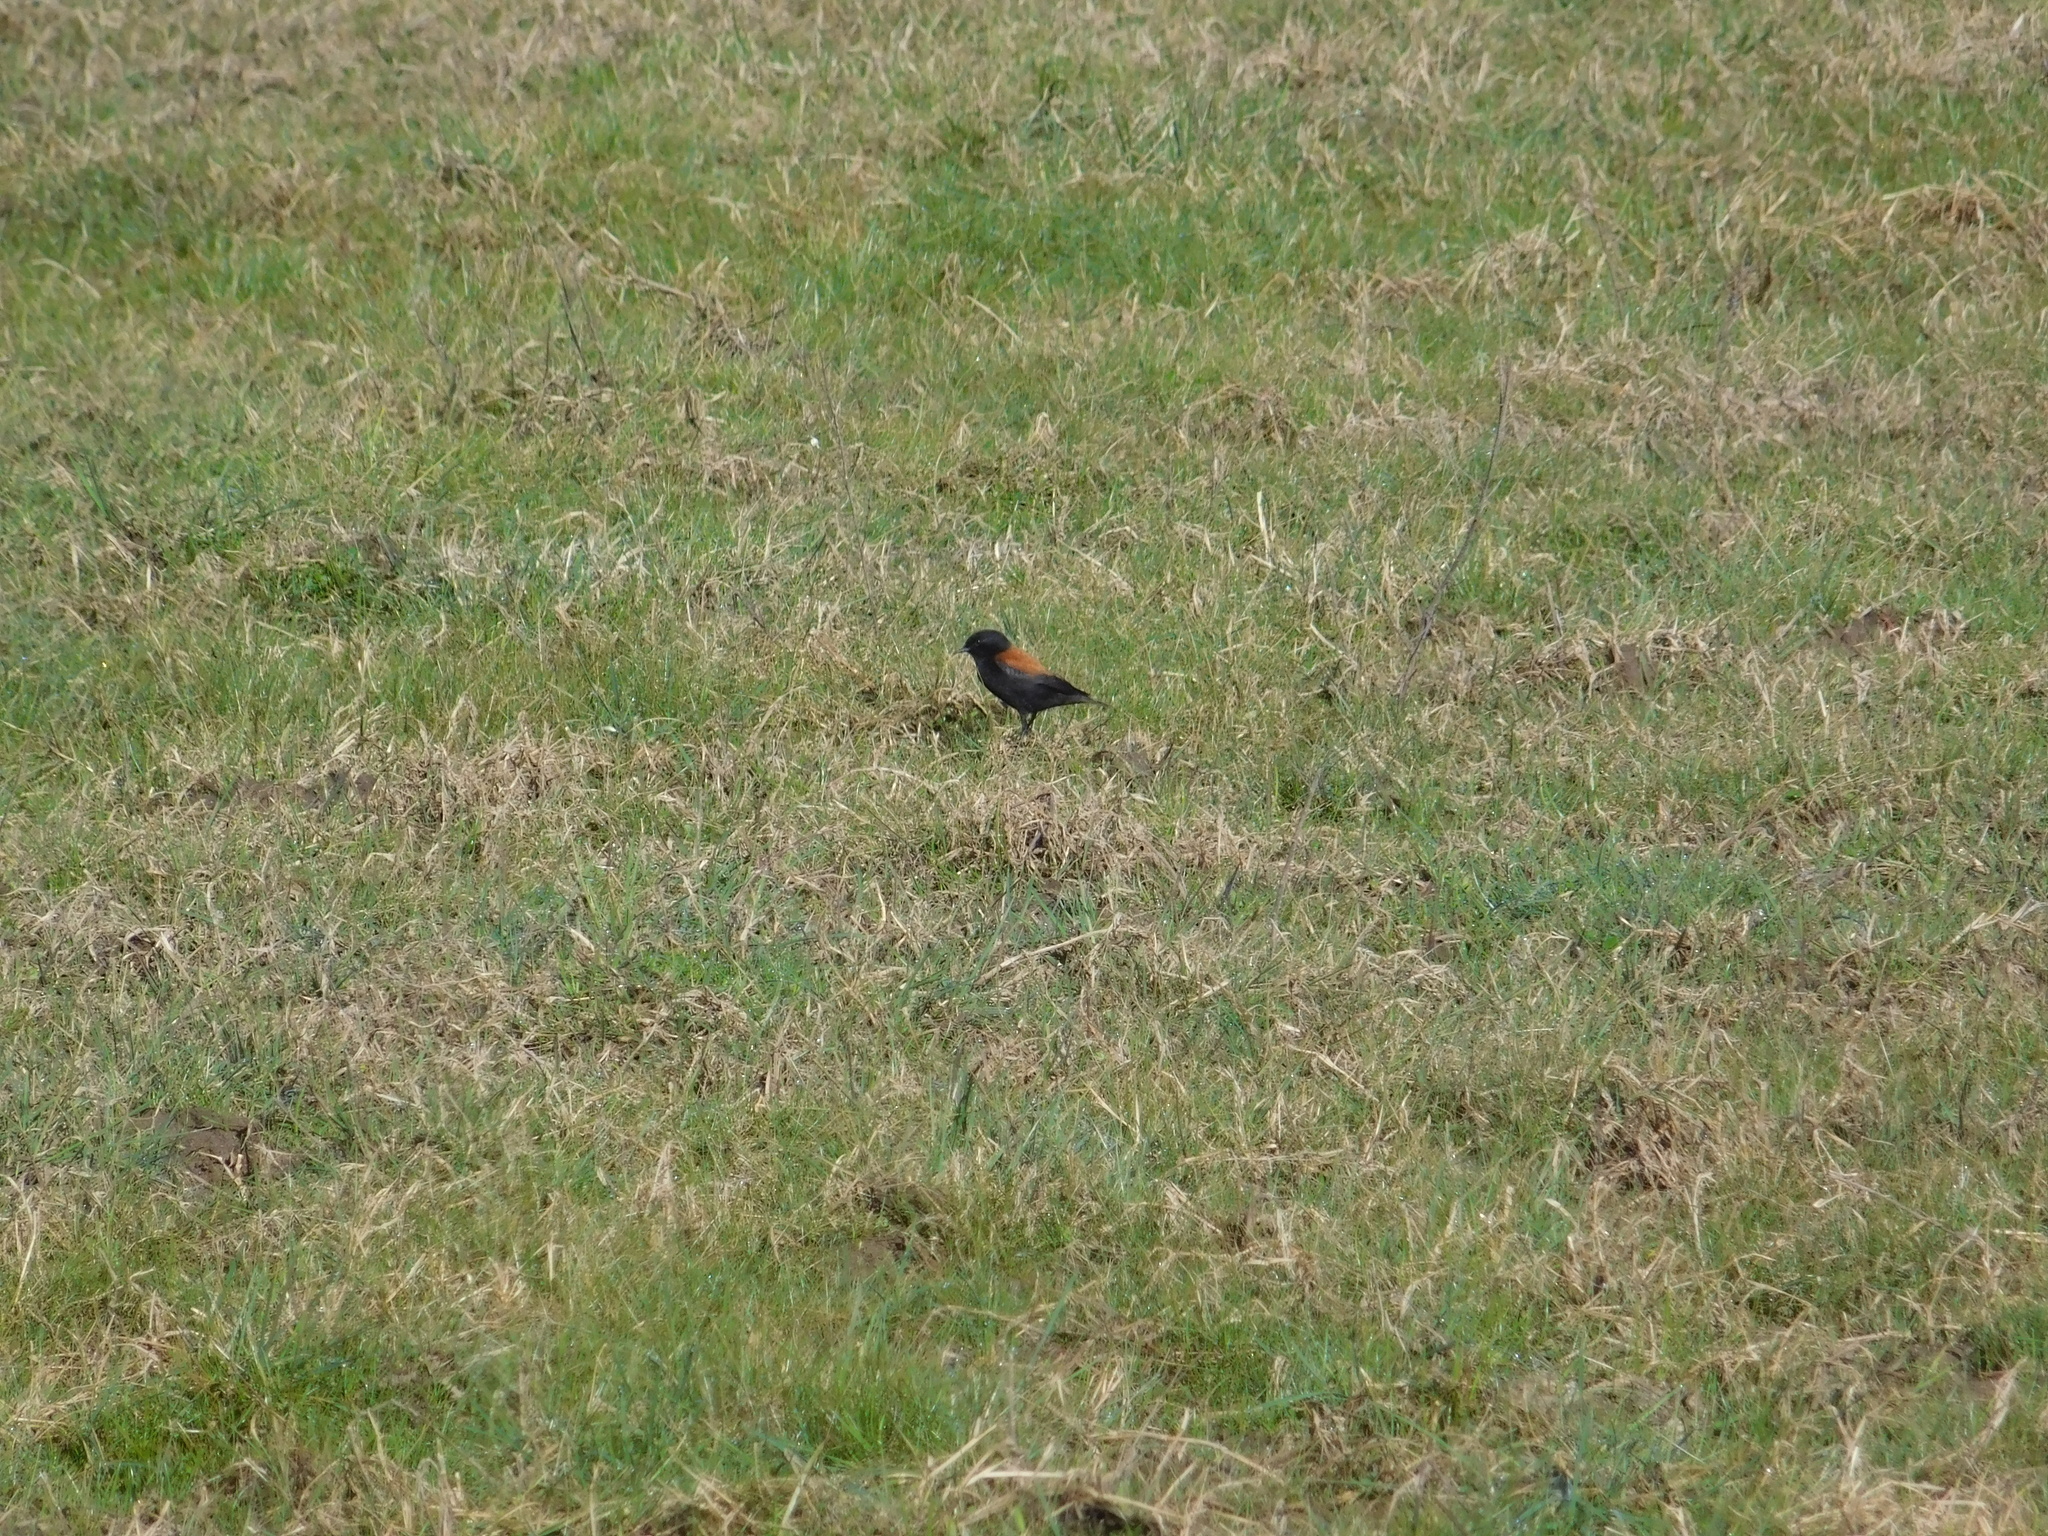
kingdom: Animalia
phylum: Chordata
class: Aves
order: Passeriformes
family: Tyrannidae
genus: Lessonia
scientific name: Lessonia rufa
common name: Austral negrito
